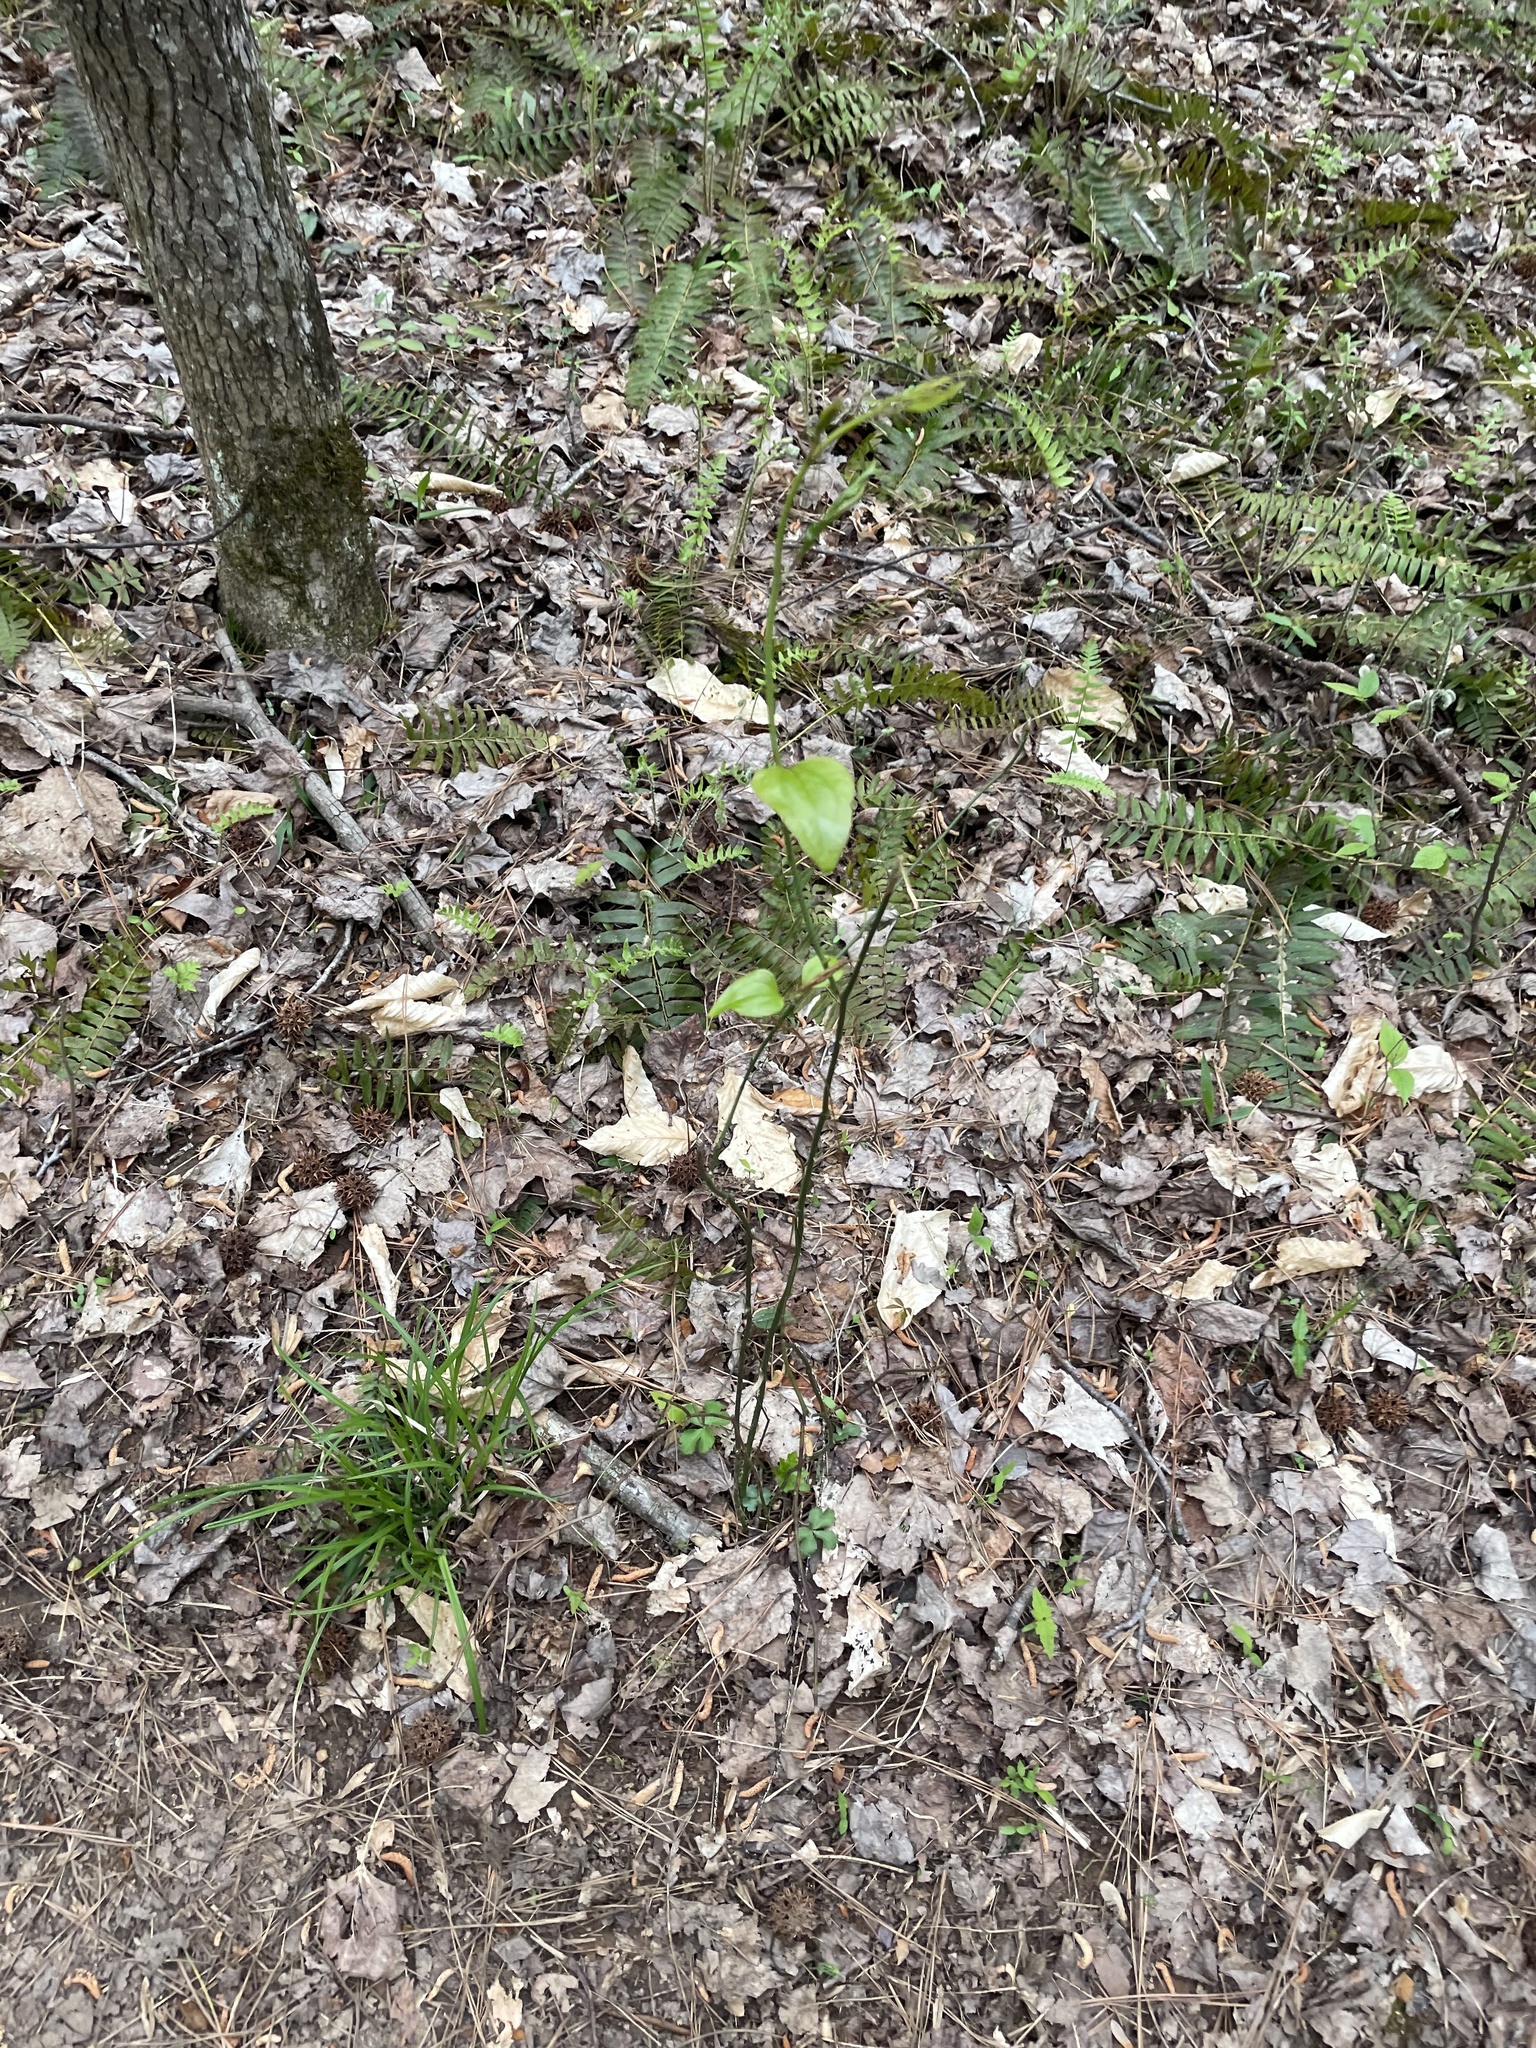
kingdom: Plantae
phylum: Tracheophyta
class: Liliopsida
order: Liliales
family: Smilacaceae
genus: Smilax
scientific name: Smilax rotundifolia
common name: Bullbriar
